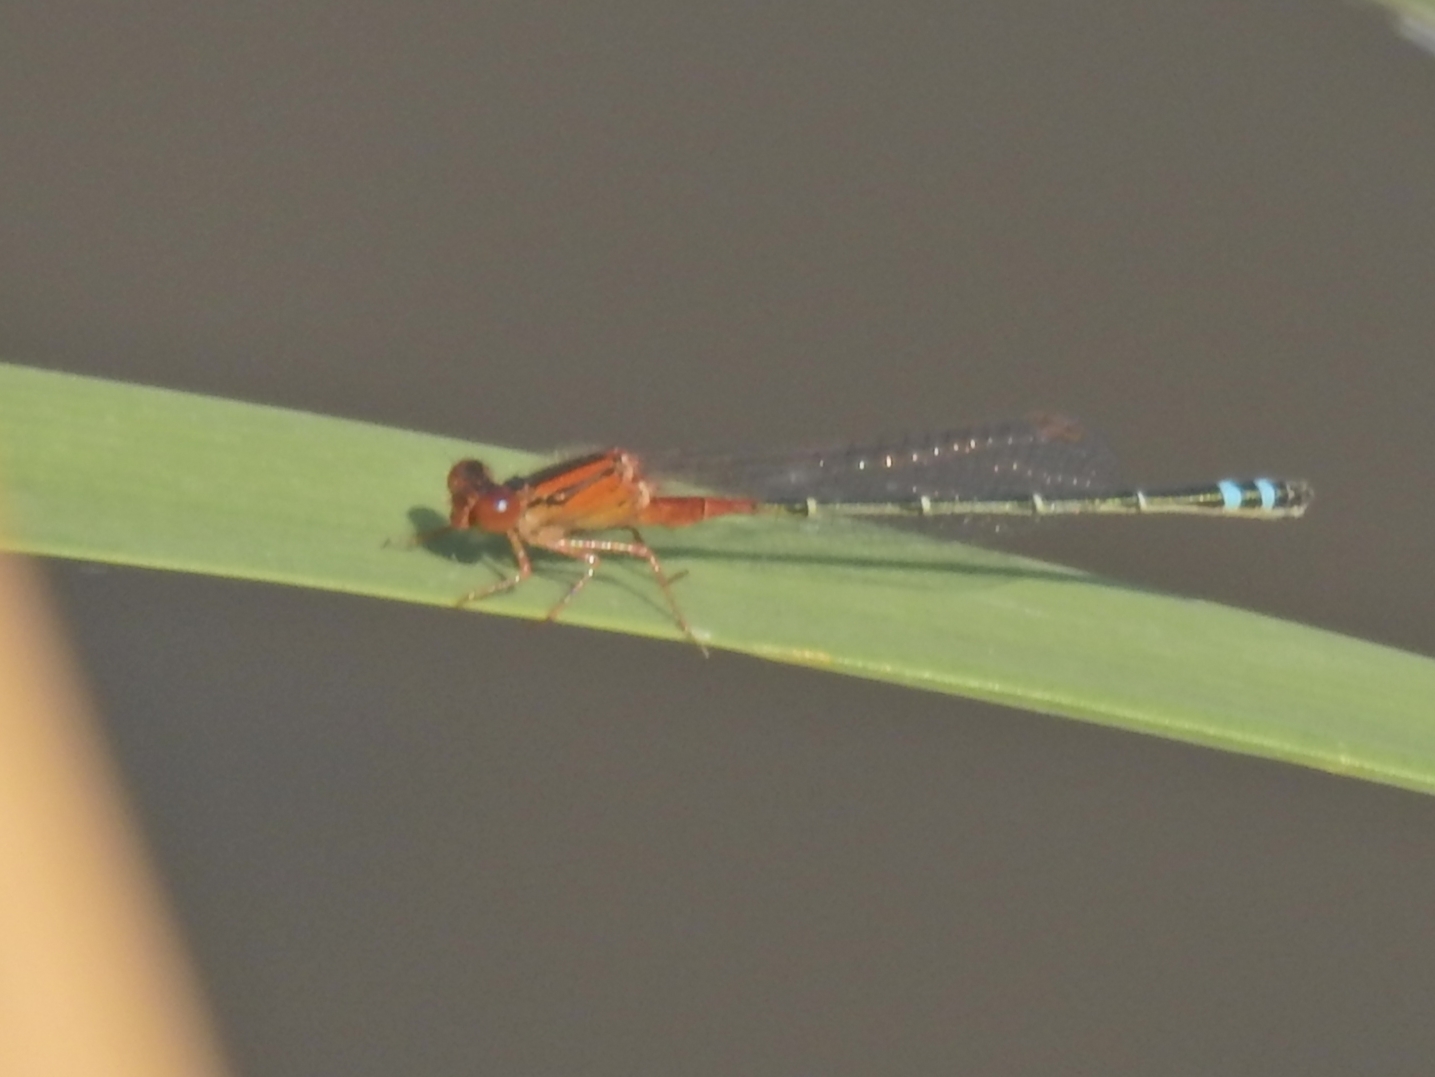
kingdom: Animalia
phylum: Arthropoda
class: Insecta
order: Odonata
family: Coenagrionidae
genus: Xanthagrion
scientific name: Xanthagrion erythroneurum
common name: Red and blue damsel
